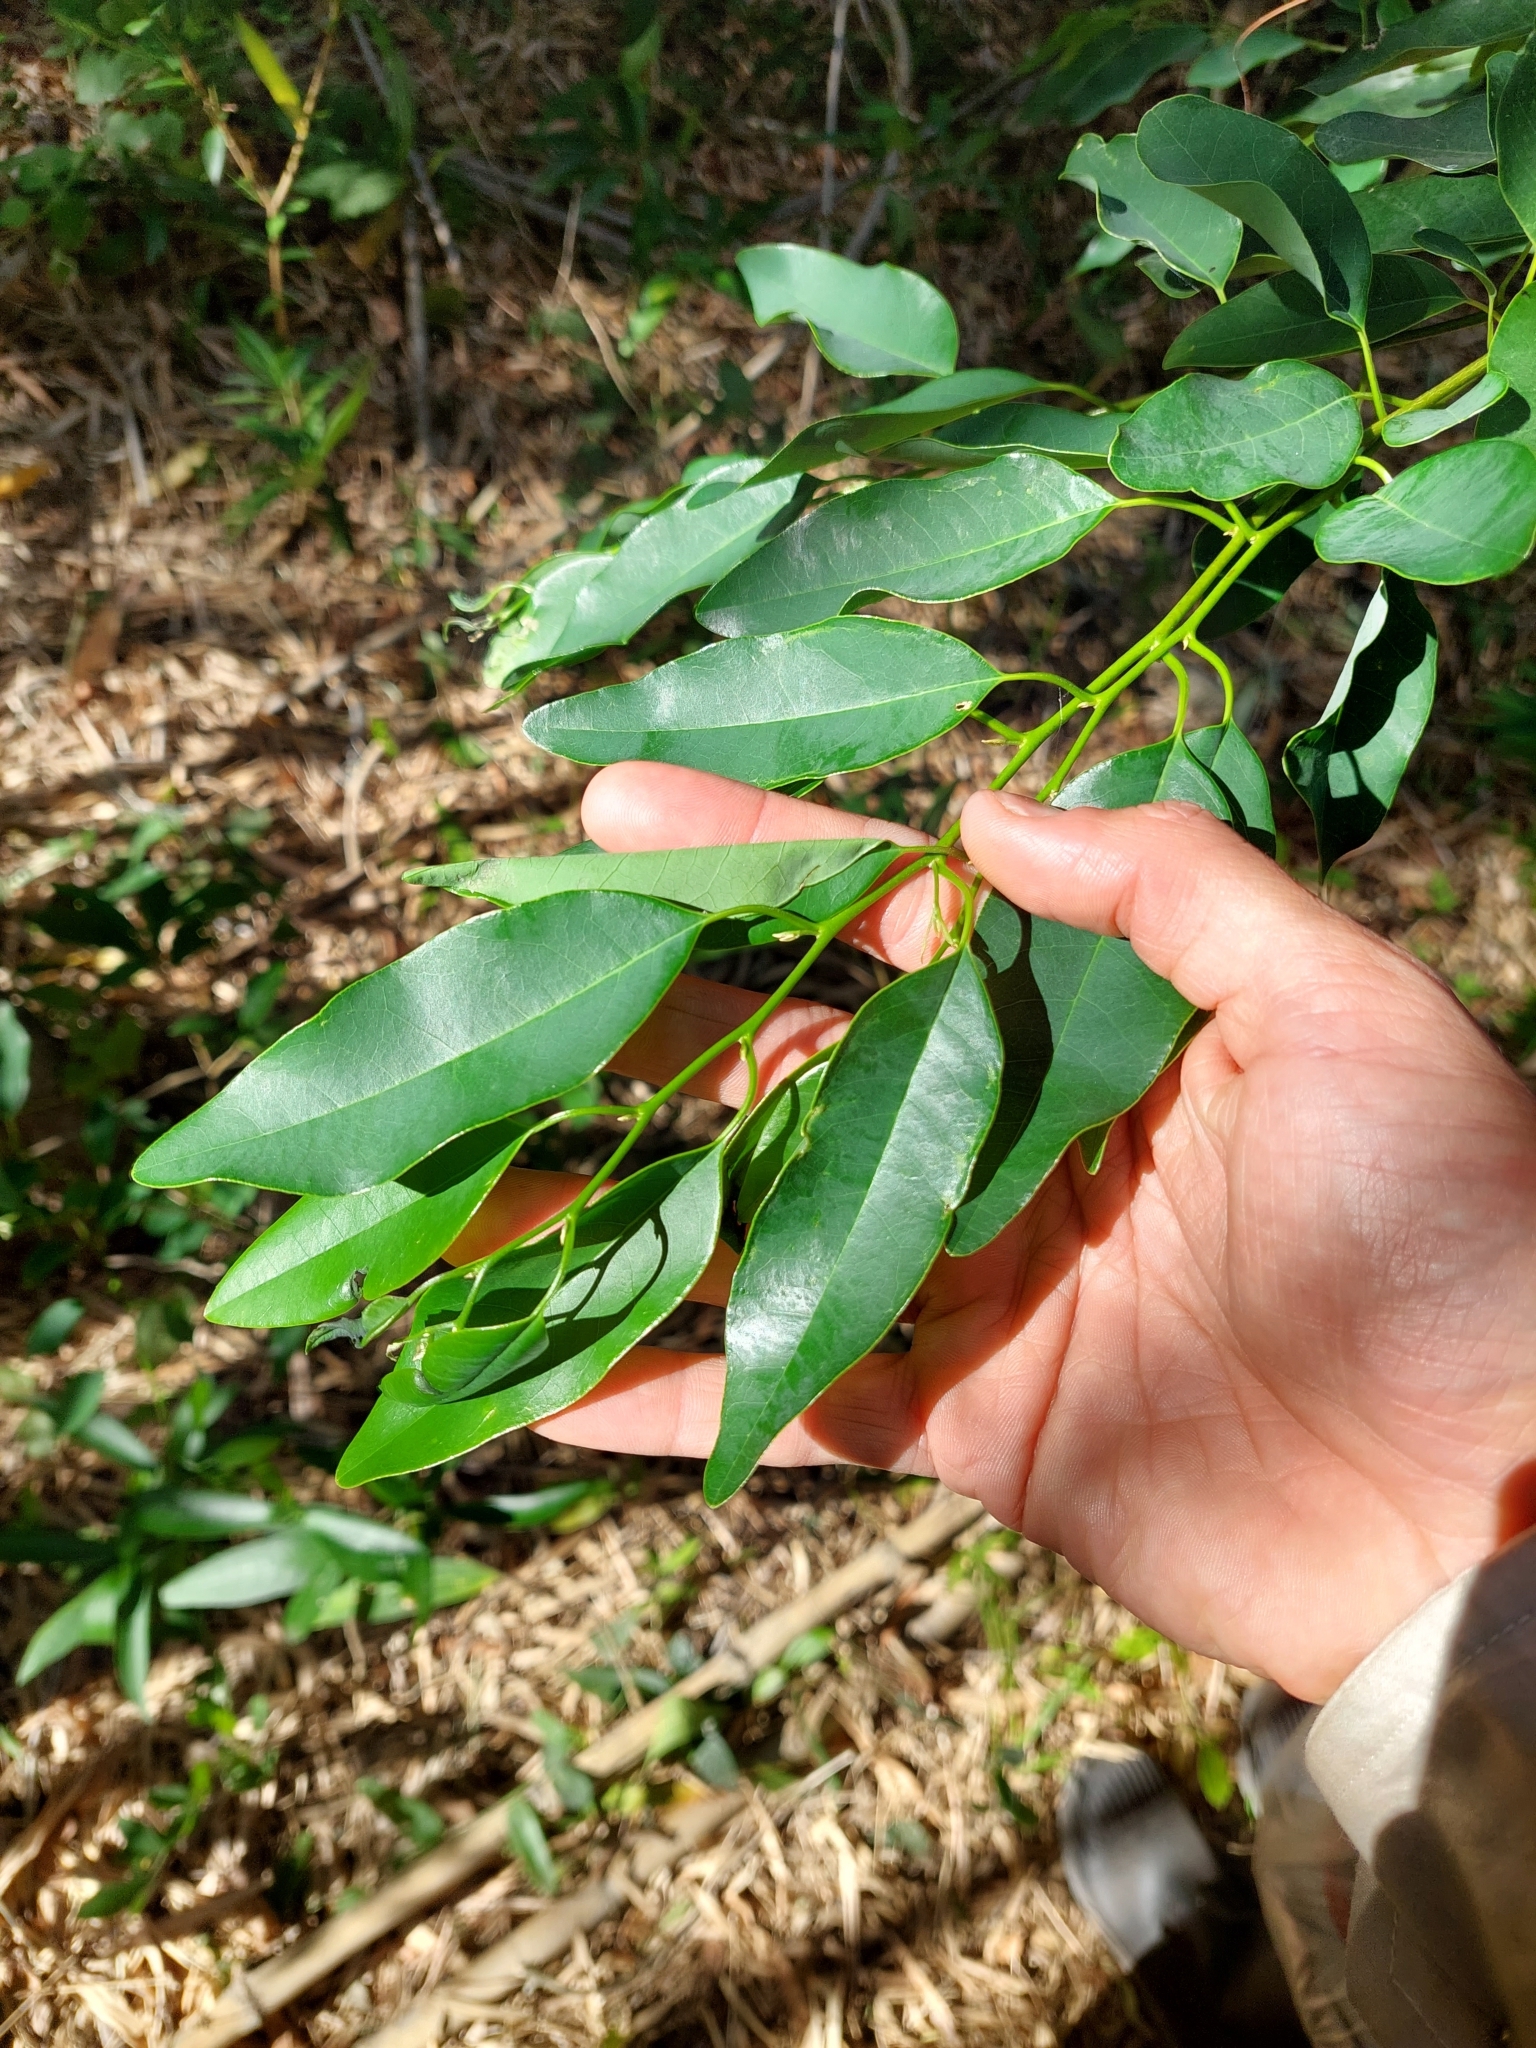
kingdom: Plantae
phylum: Tracheophyta
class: Magnoliopsida
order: Magnoliales
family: Annonaceae
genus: Annona
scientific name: Annona emarginata
